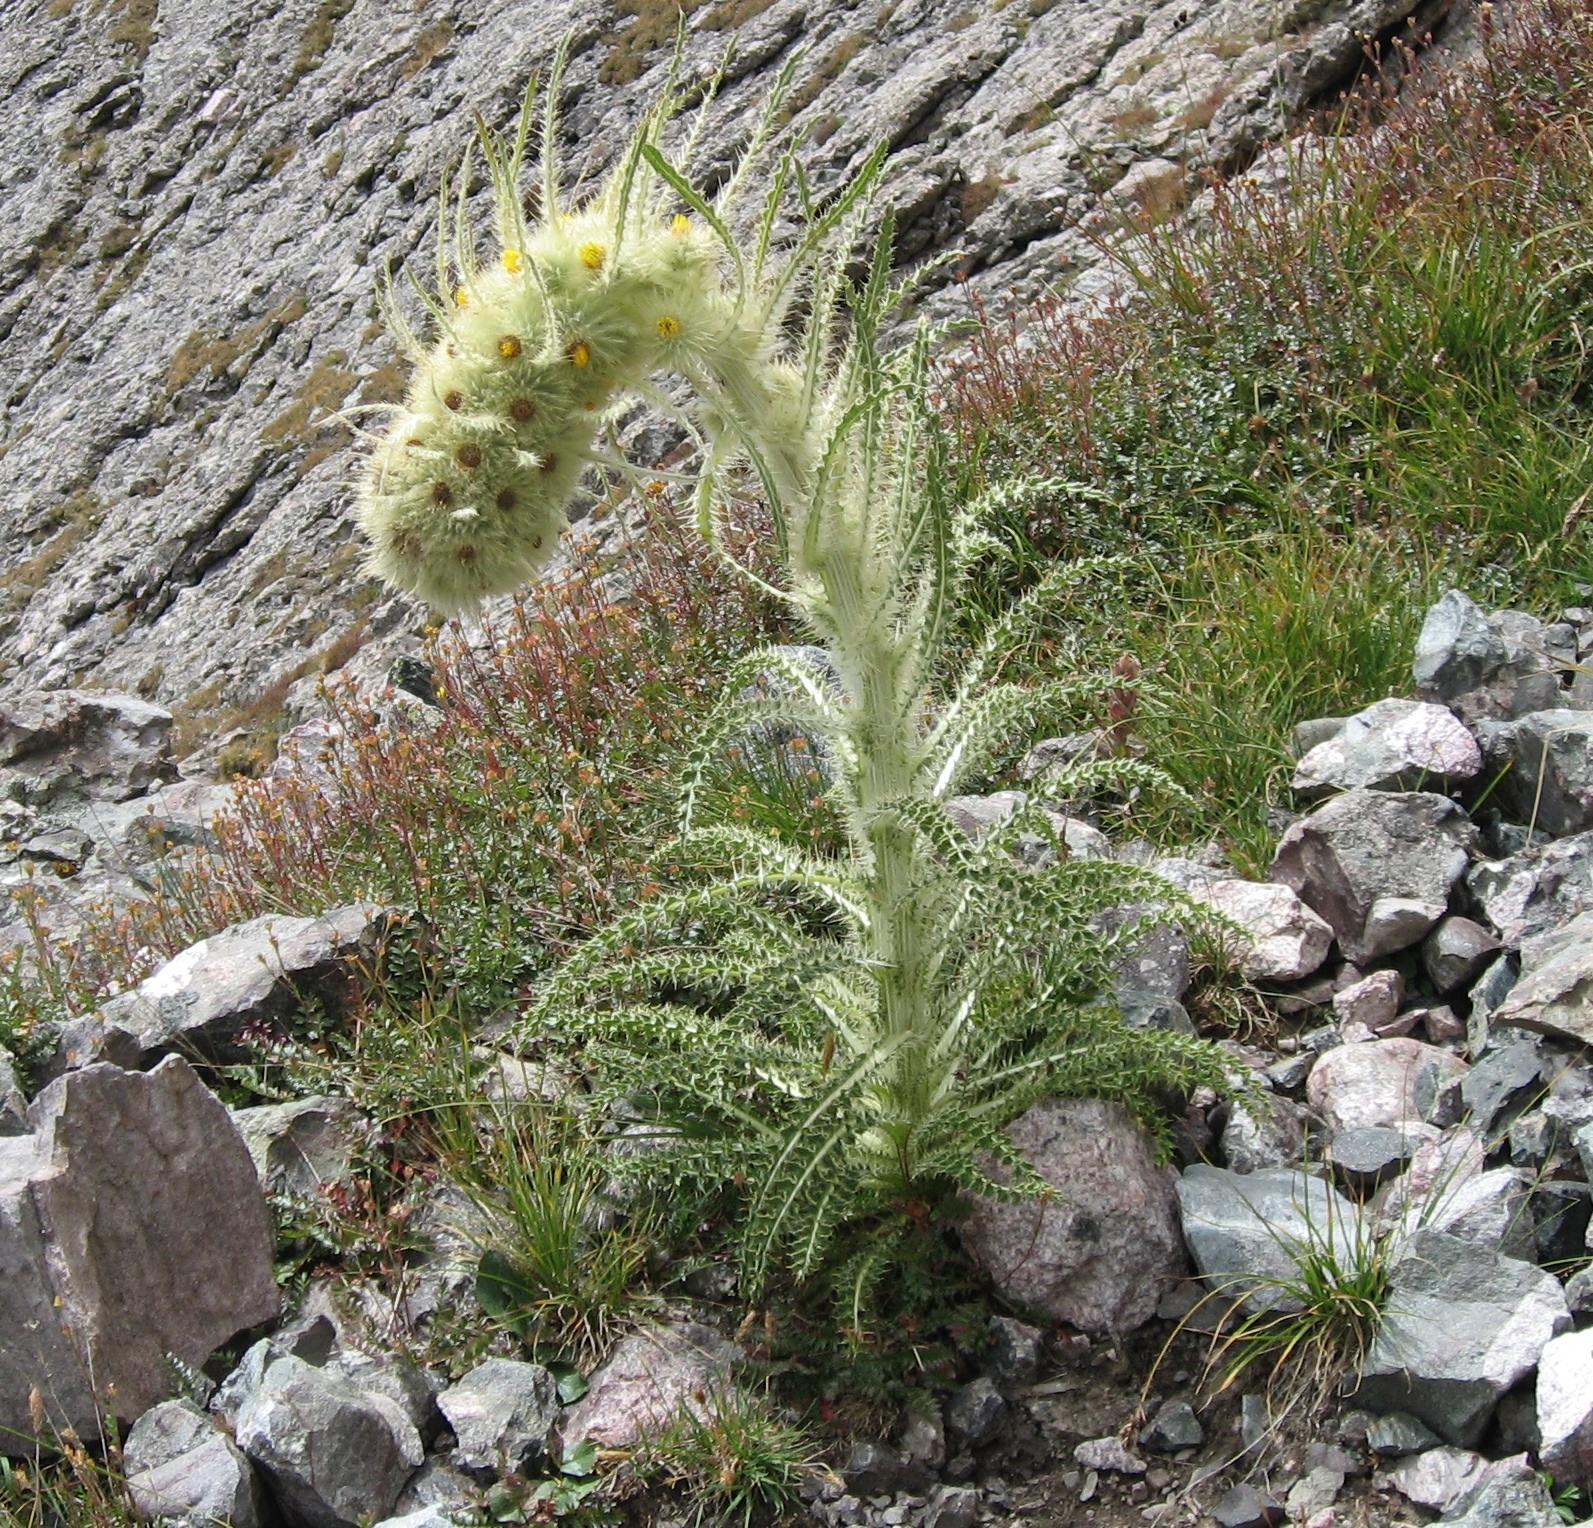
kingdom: Plantae
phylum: Tracheophyta
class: Magnoliopsida
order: Asterales
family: Asteraceae
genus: Cirsium
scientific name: Cirsium funkiae
